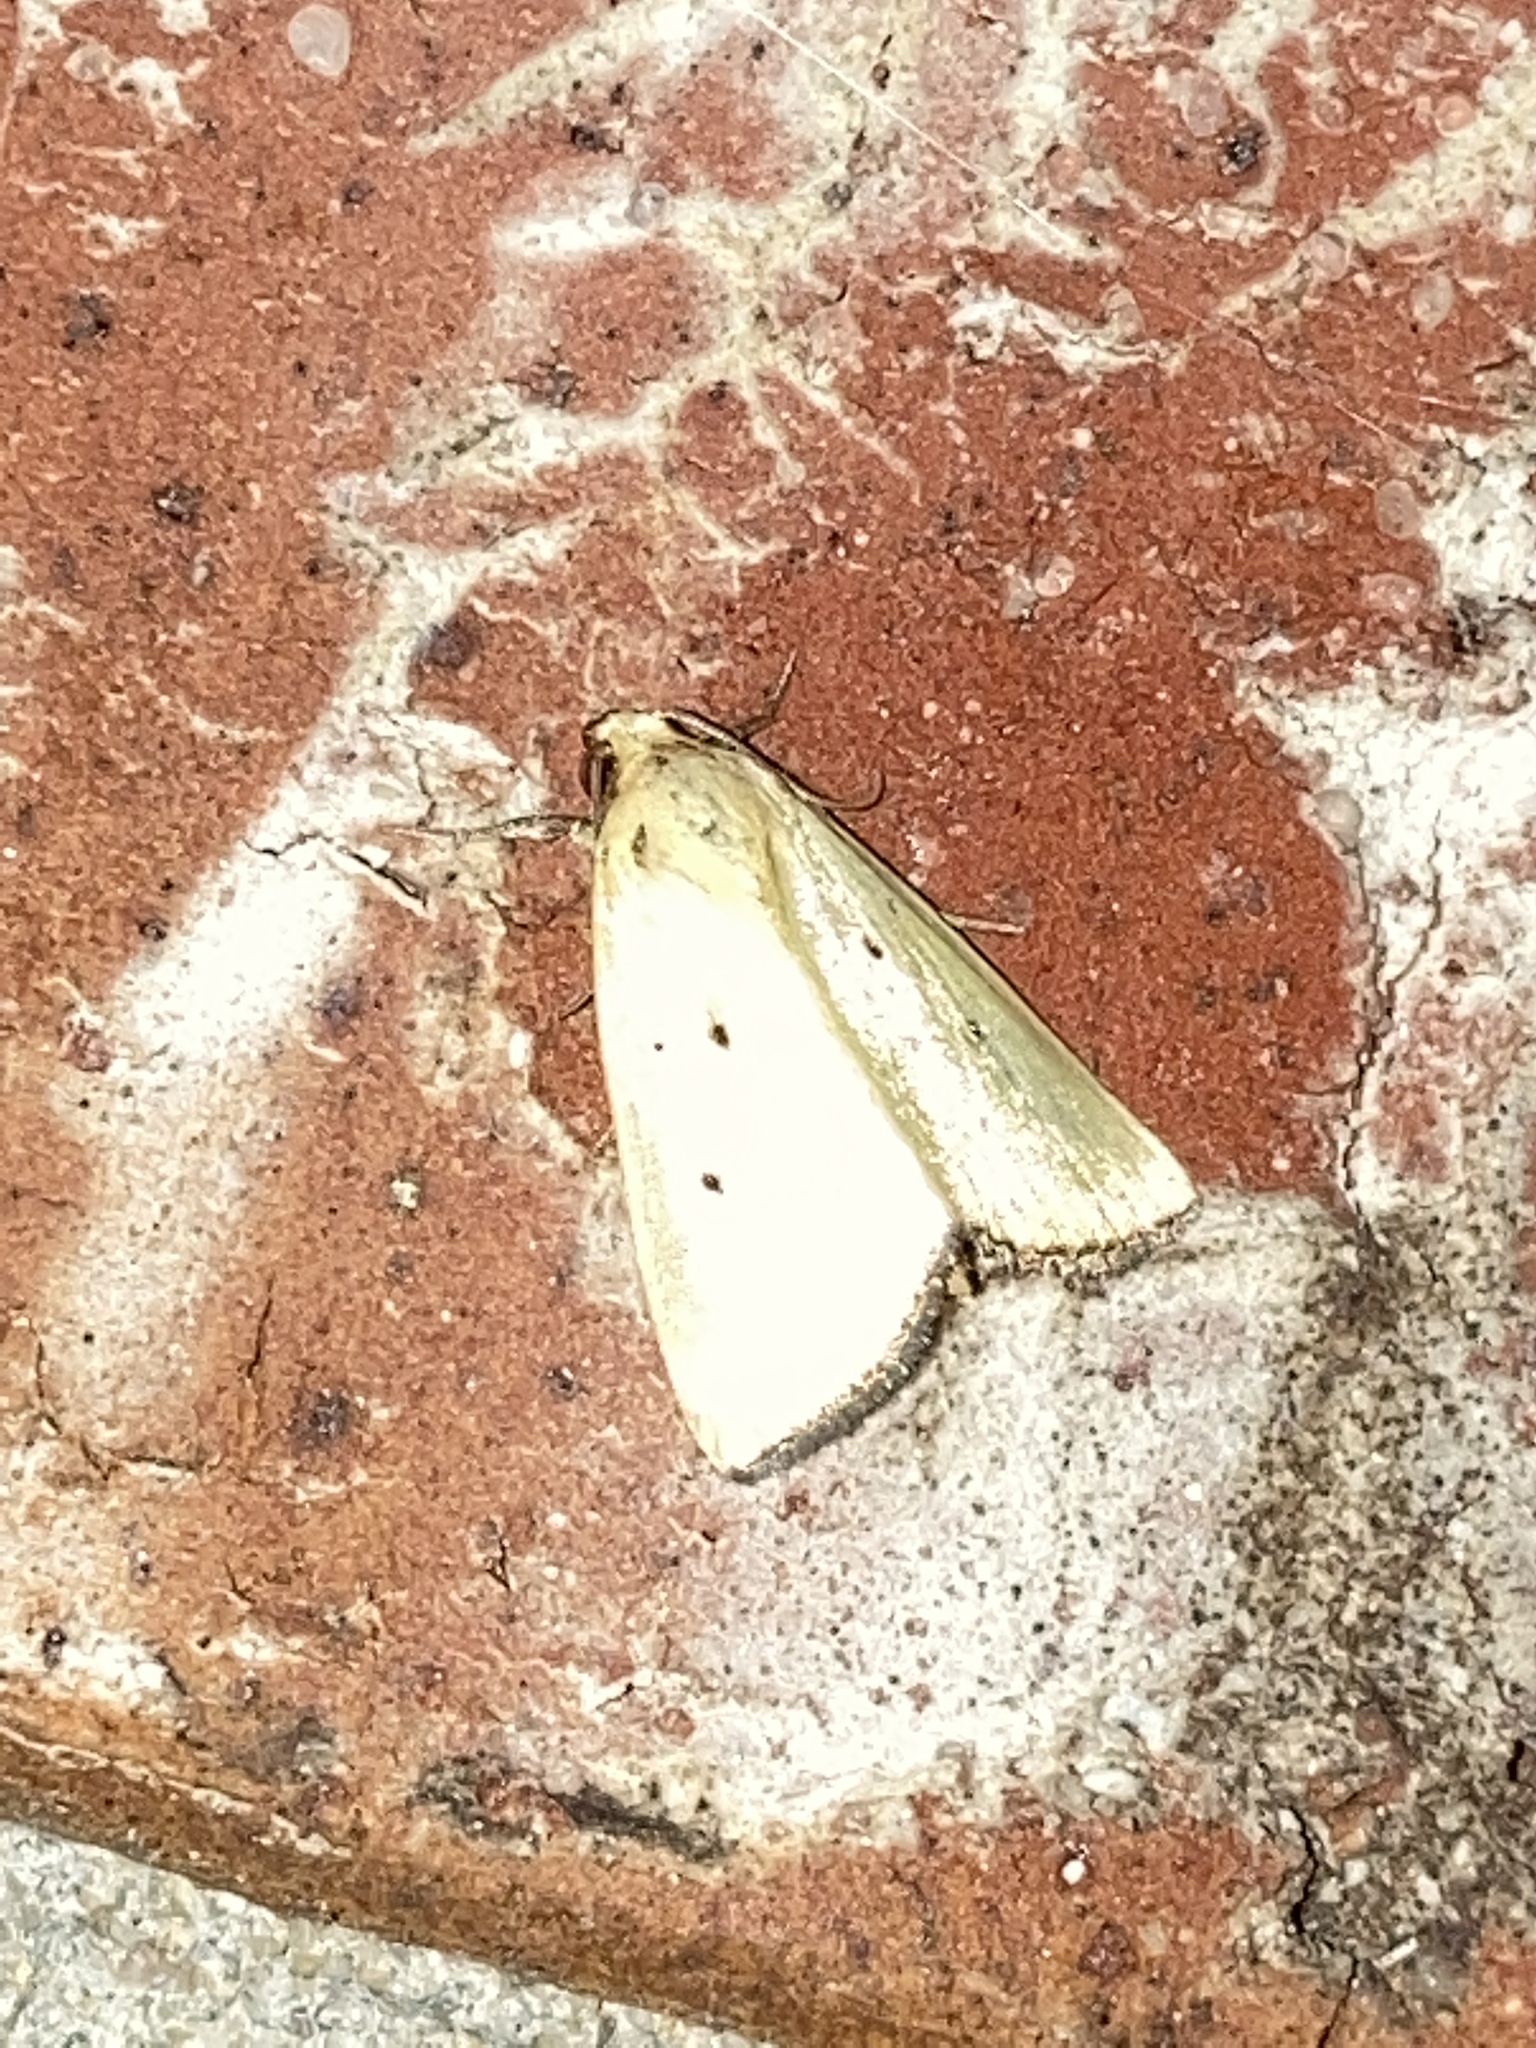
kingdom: Animalia
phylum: Arthropoda
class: Insecta
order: Lepidoptera
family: Noctuidae
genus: Marimatha
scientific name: Marimatha nigrofimbria
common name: Black-bordered lemon moth
